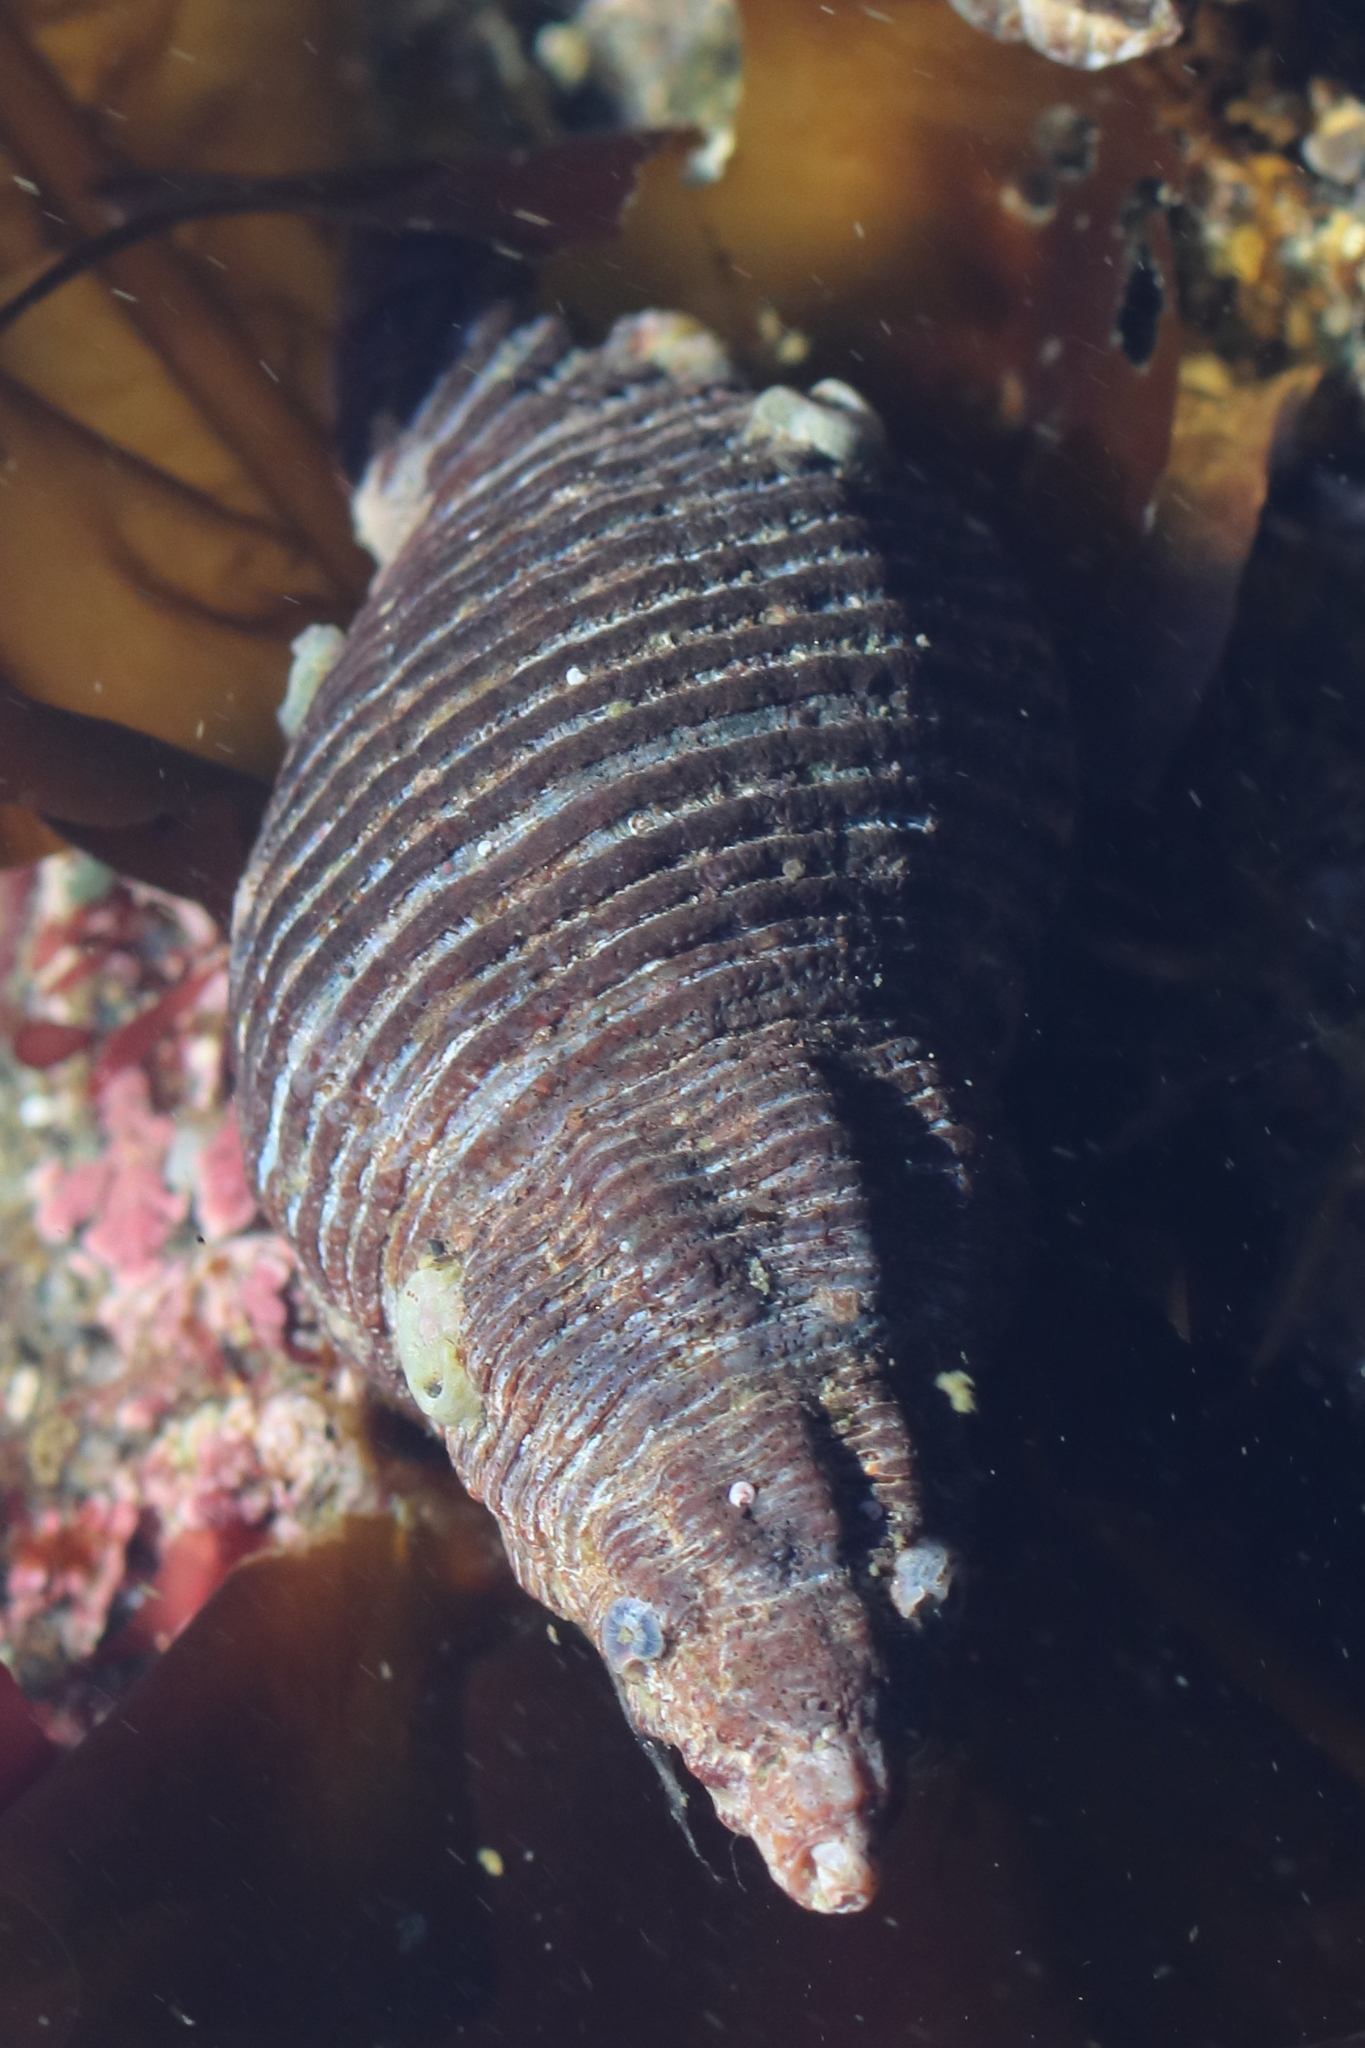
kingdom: Animalia
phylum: Mollusca
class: Gastropoda
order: Neogastropoda
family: Tudiclidae
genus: Lirabuccinum
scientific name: Lirabuccinum dirum
